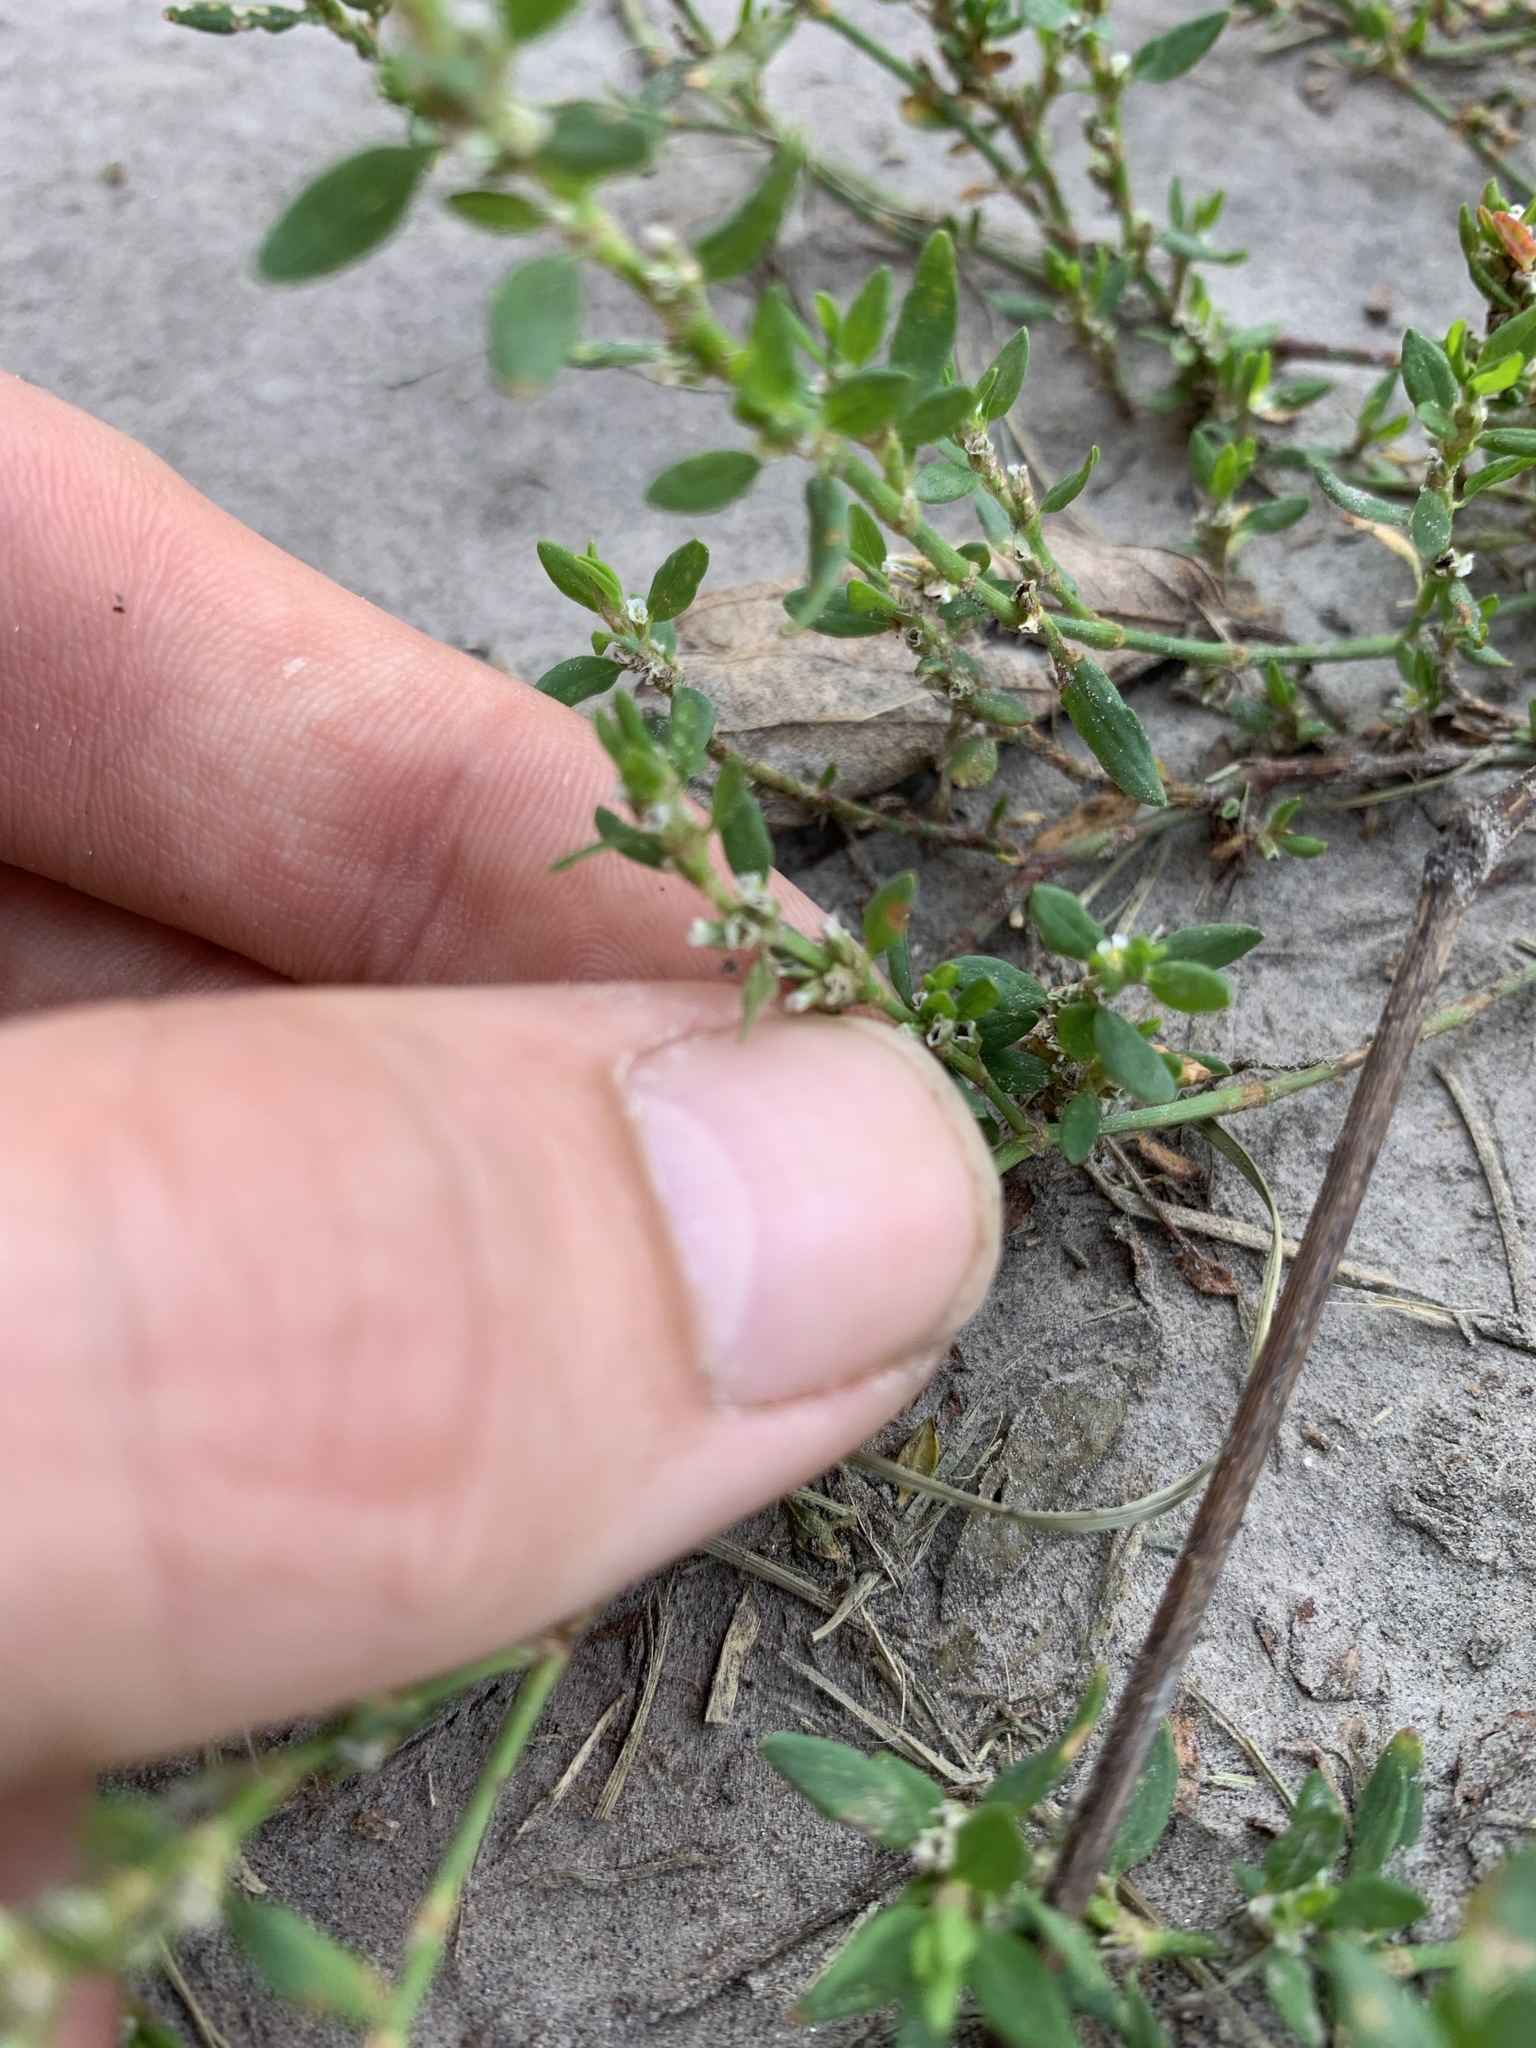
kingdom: Plantae
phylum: Tracheophyta
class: Magnoliopsida
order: Caryophyllales
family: Polygonaceae
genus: Polygonum
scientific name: Polygonum aviculare
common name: Prostrate knotweed
